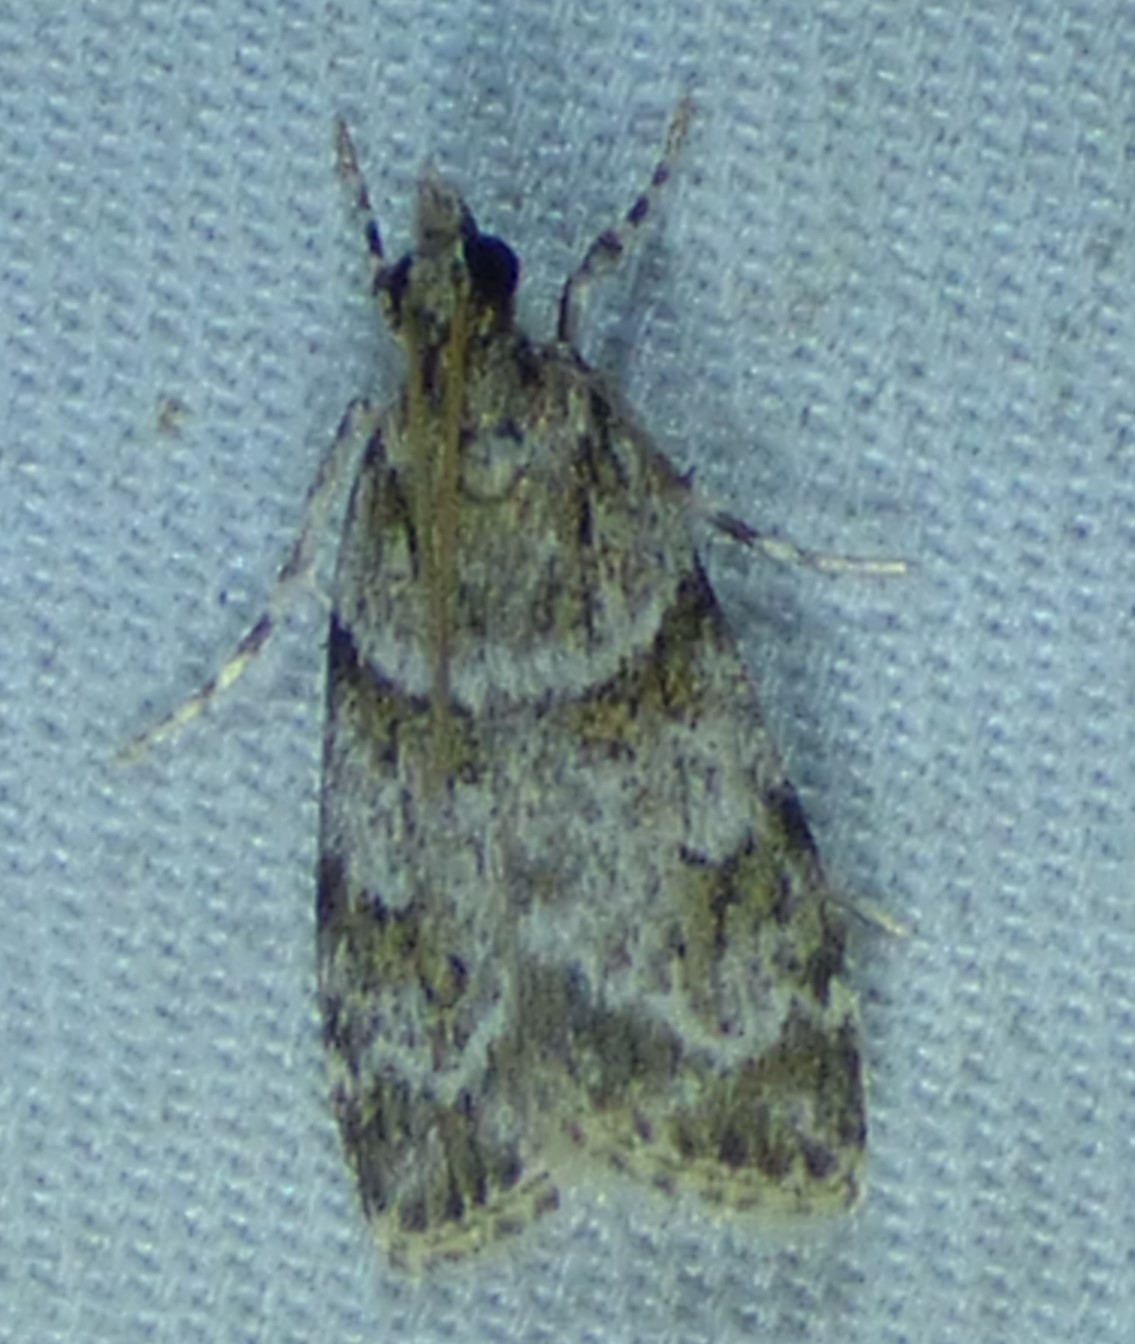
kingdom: Animalia
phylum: Arthropoda
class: Insecta
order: Lepidoptera
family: Crambidae
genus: Scoparia
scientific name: Scoparia biplagialis
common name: Double-striped scoparia moth
